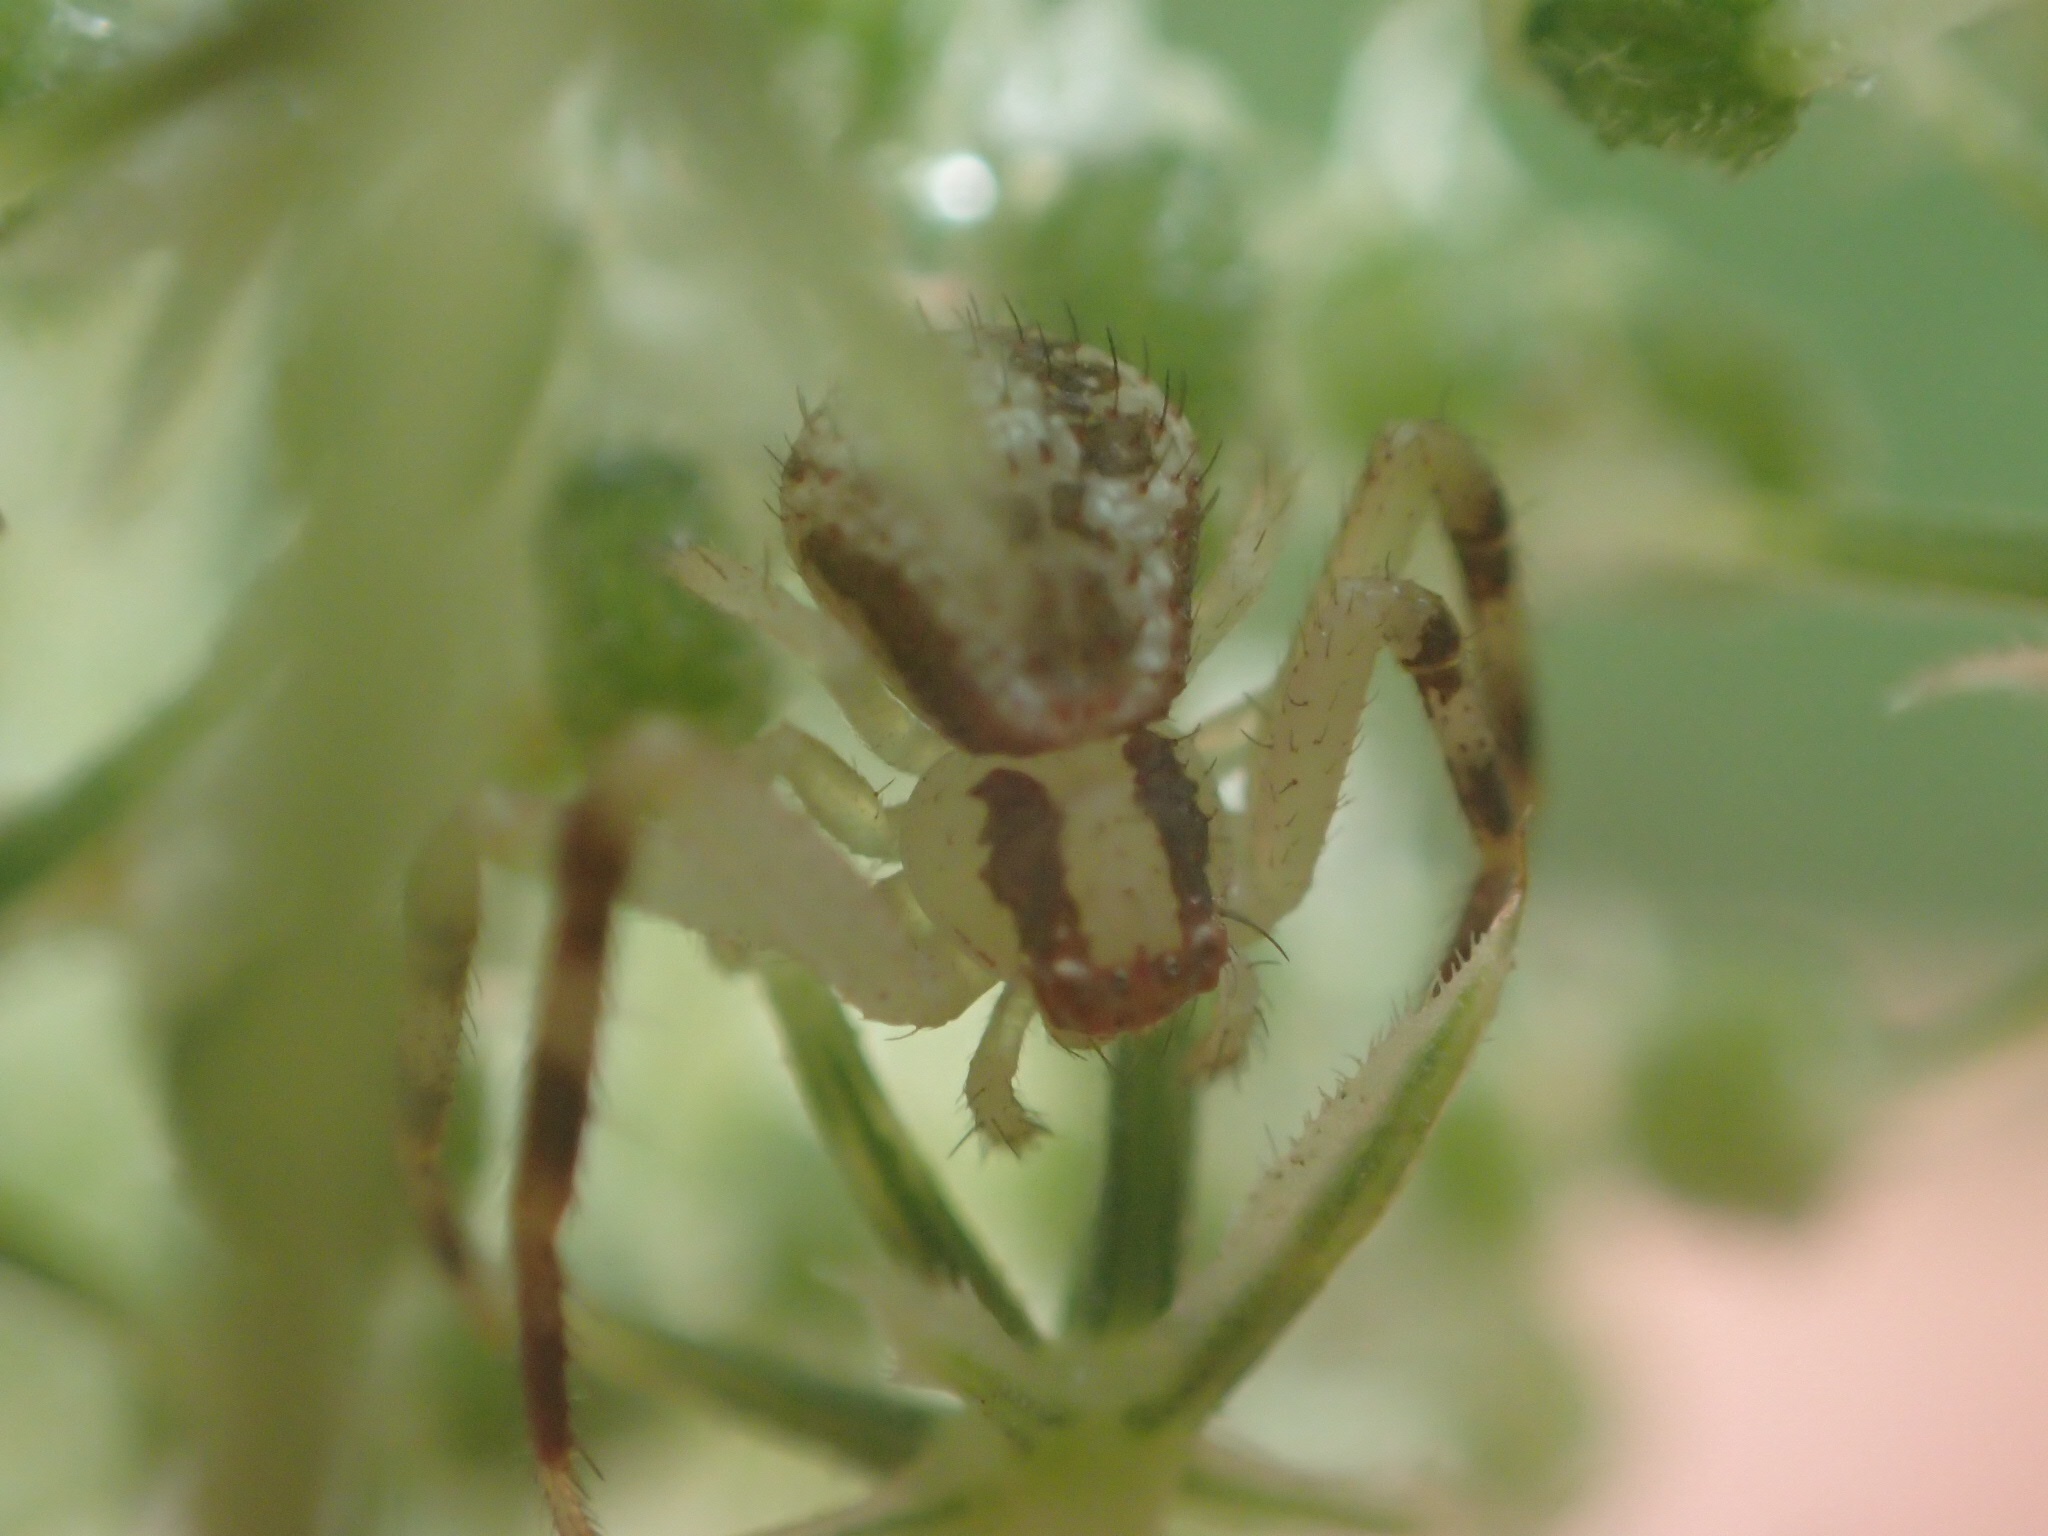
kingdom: Animalia
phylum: Arthropoda
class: Arachnida
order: Araneae
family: Thomisidae
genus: Mecaphesa
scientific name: Mecaphesa asperata
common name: Crab spiders
